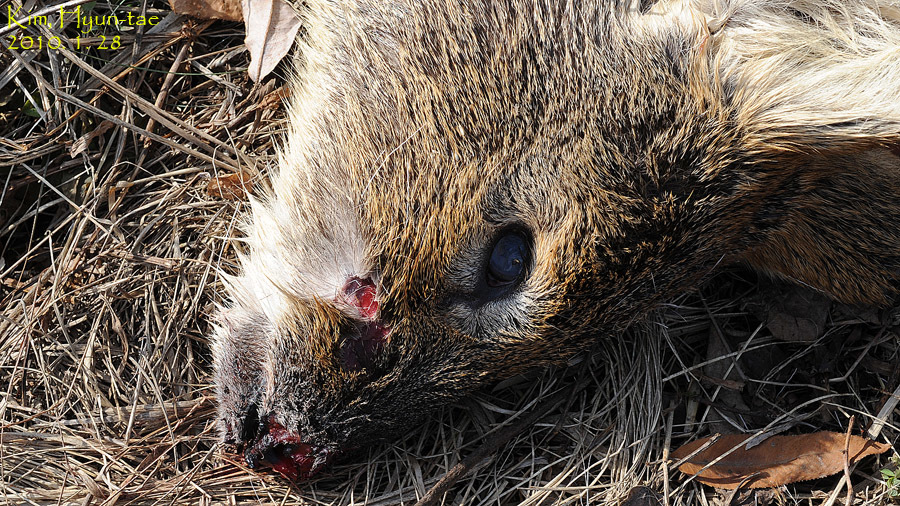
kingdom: Animalia
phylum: Chordata
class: Mammalia
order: Artiodactyla
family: Cervidae
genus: Hydropotes
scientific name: Hydropotes inermis
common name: Chinese water deer
